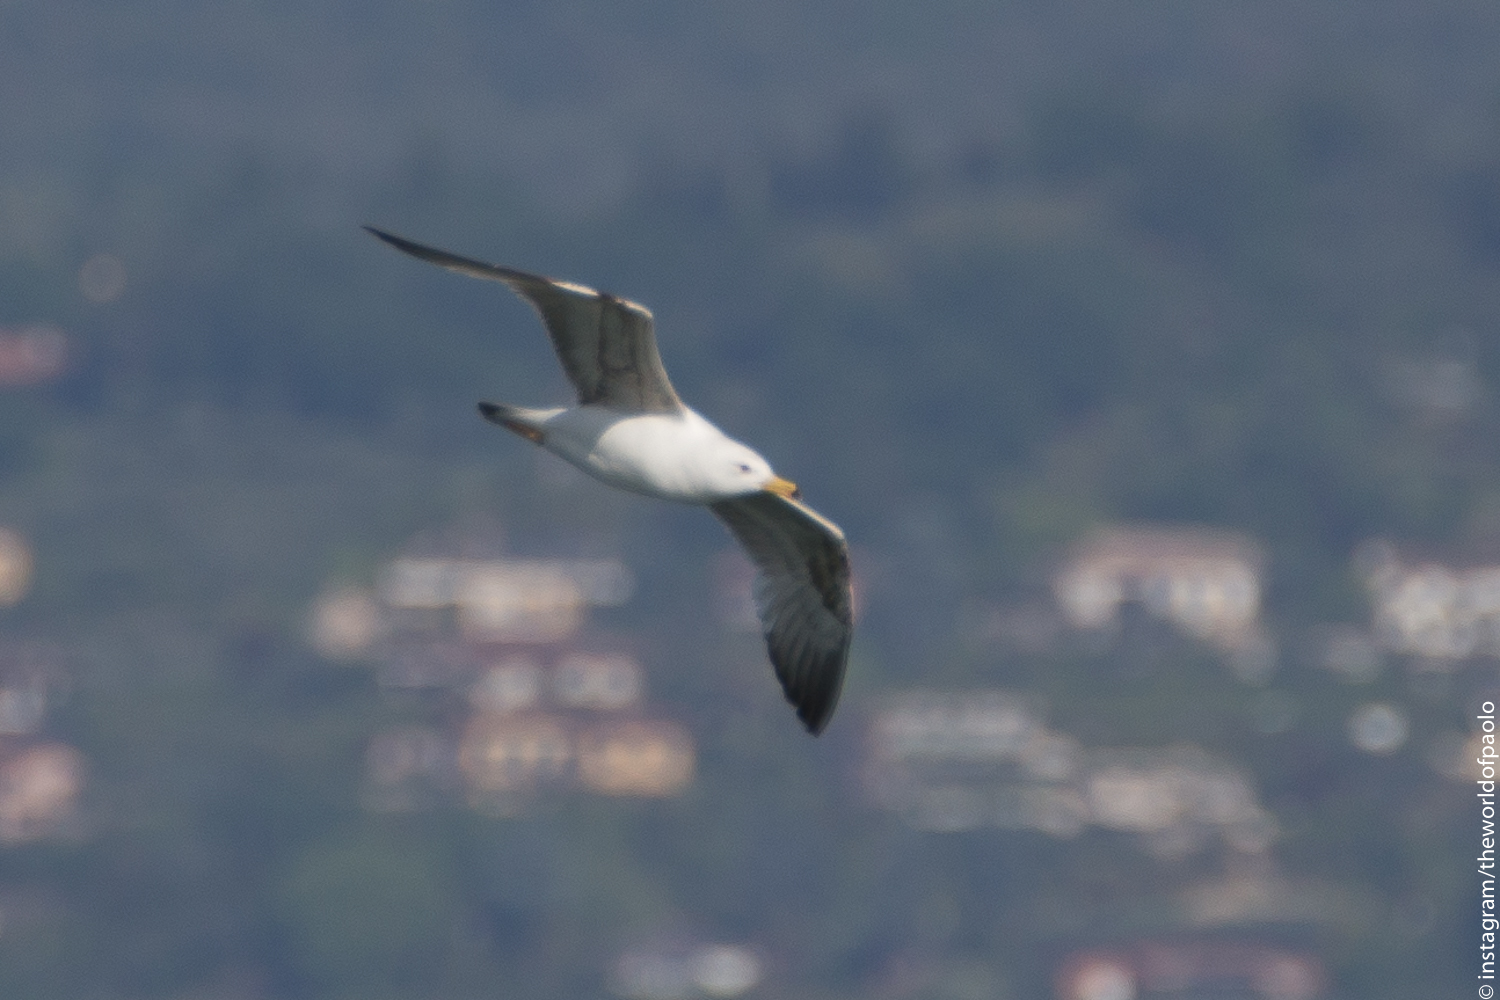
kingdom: Animalia
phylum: Chordata
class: Aves
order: Charadriiformes
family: Laridae
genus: Larus
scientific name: Larus michahellis
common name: Yellow-legged gull
